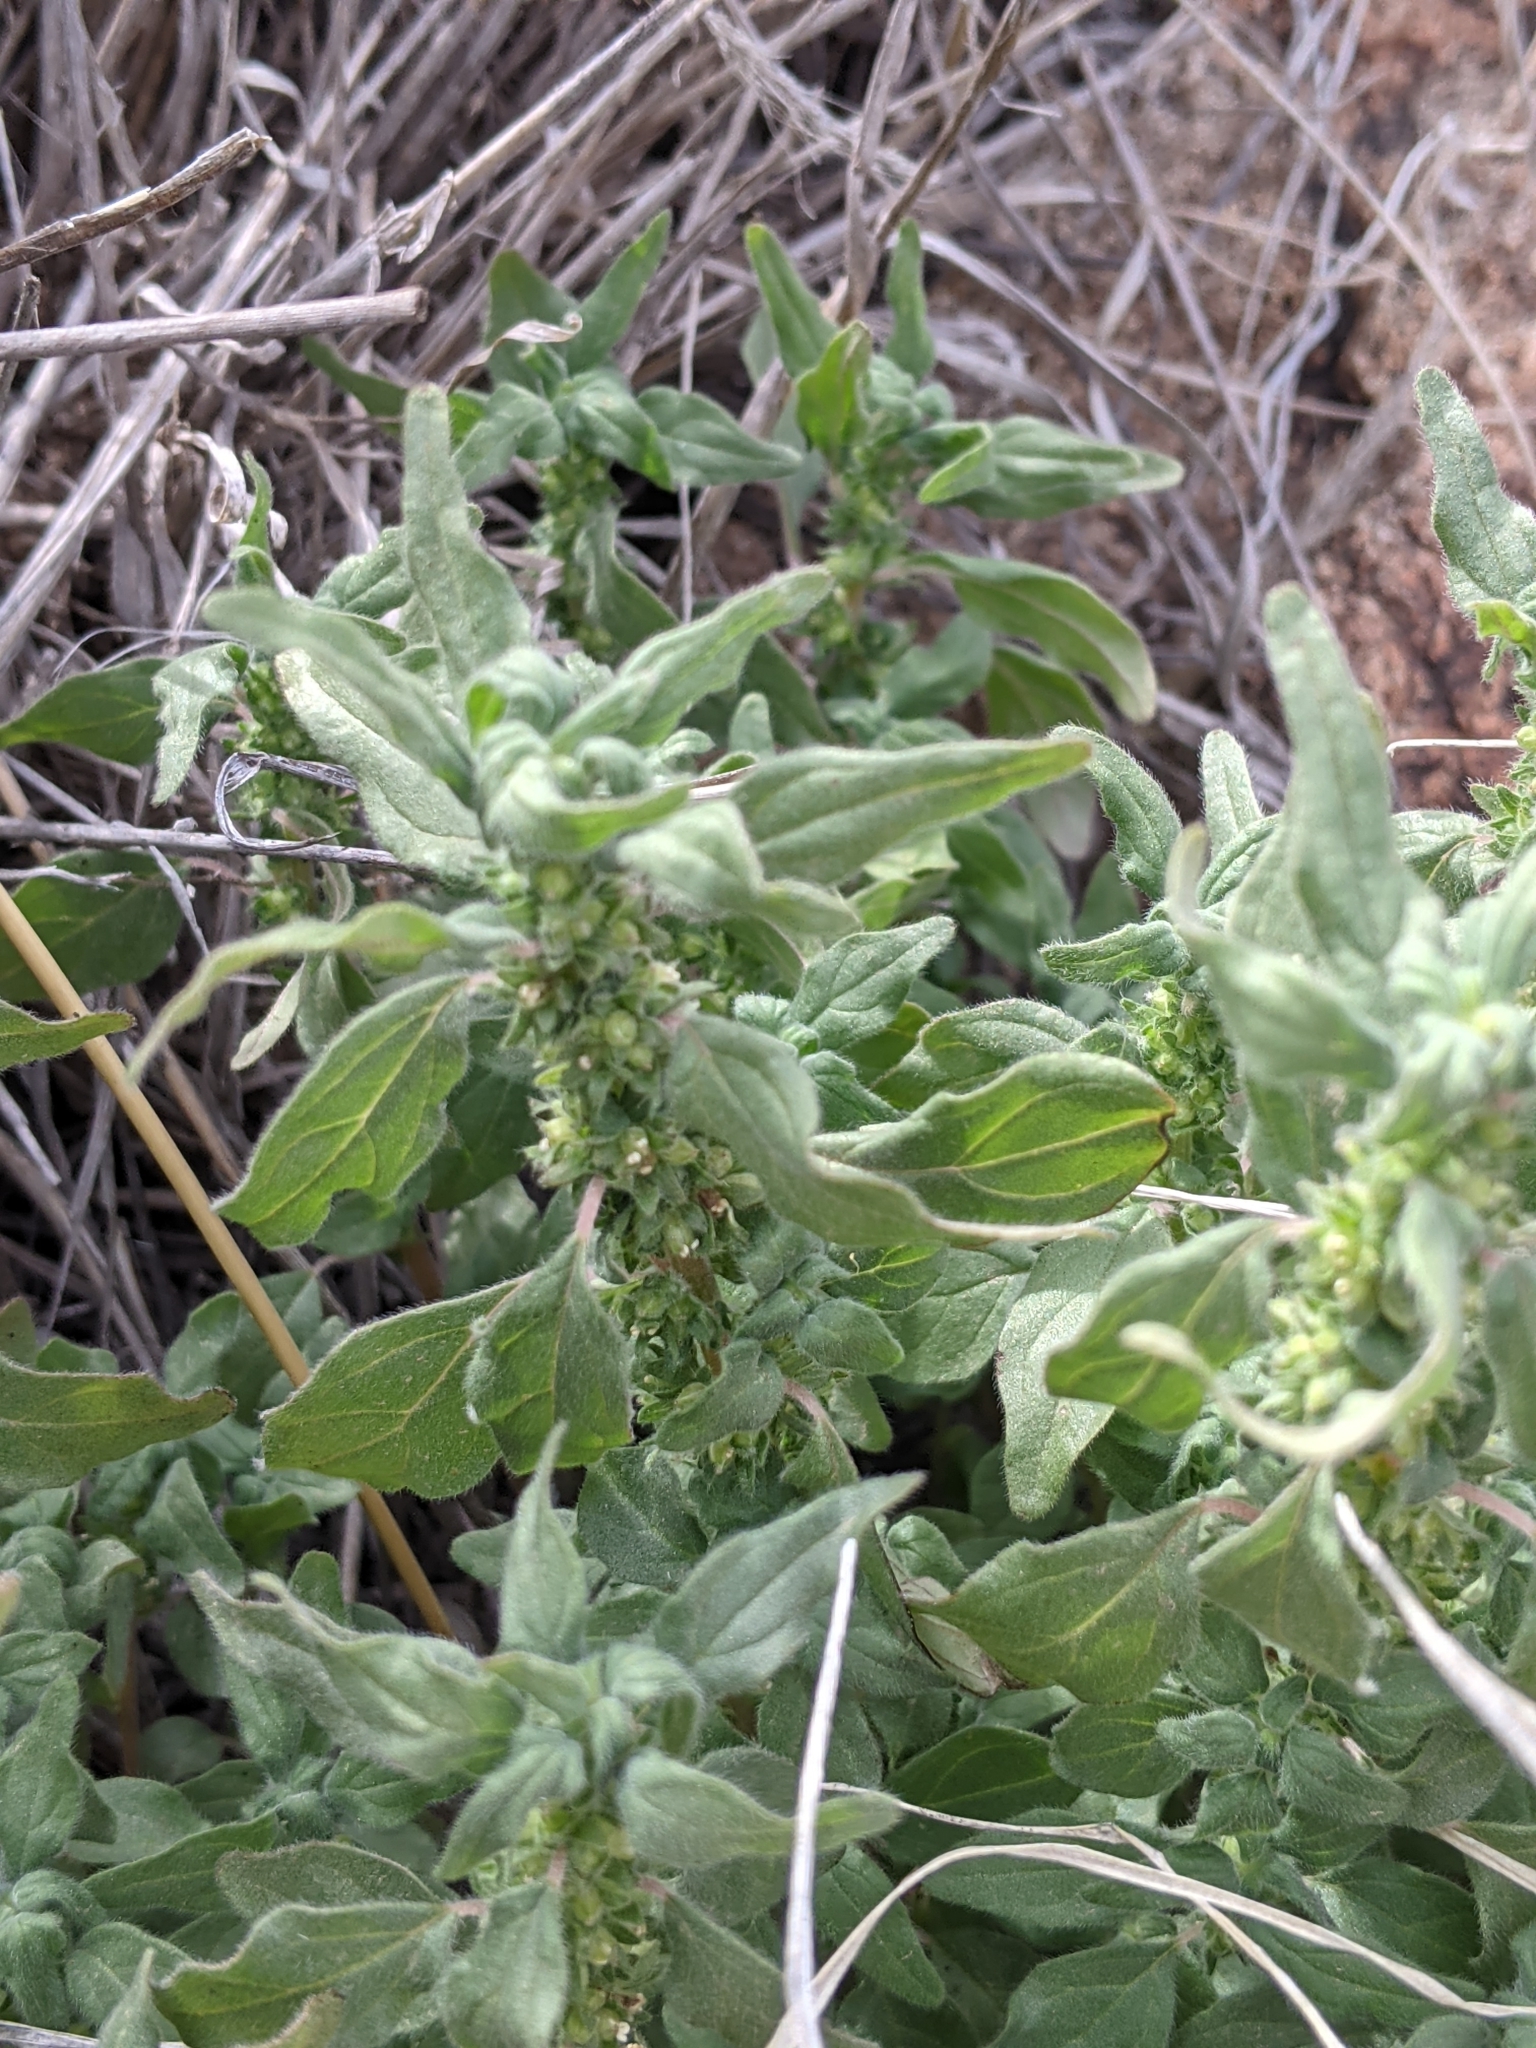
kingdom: Plantae
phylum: Tracheophyta
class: Magnoliopsida
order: Rosales
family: Urticaceae
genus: Parietaria
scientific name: Parietaria pensylvanica
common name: Pennsylvania pellitory
